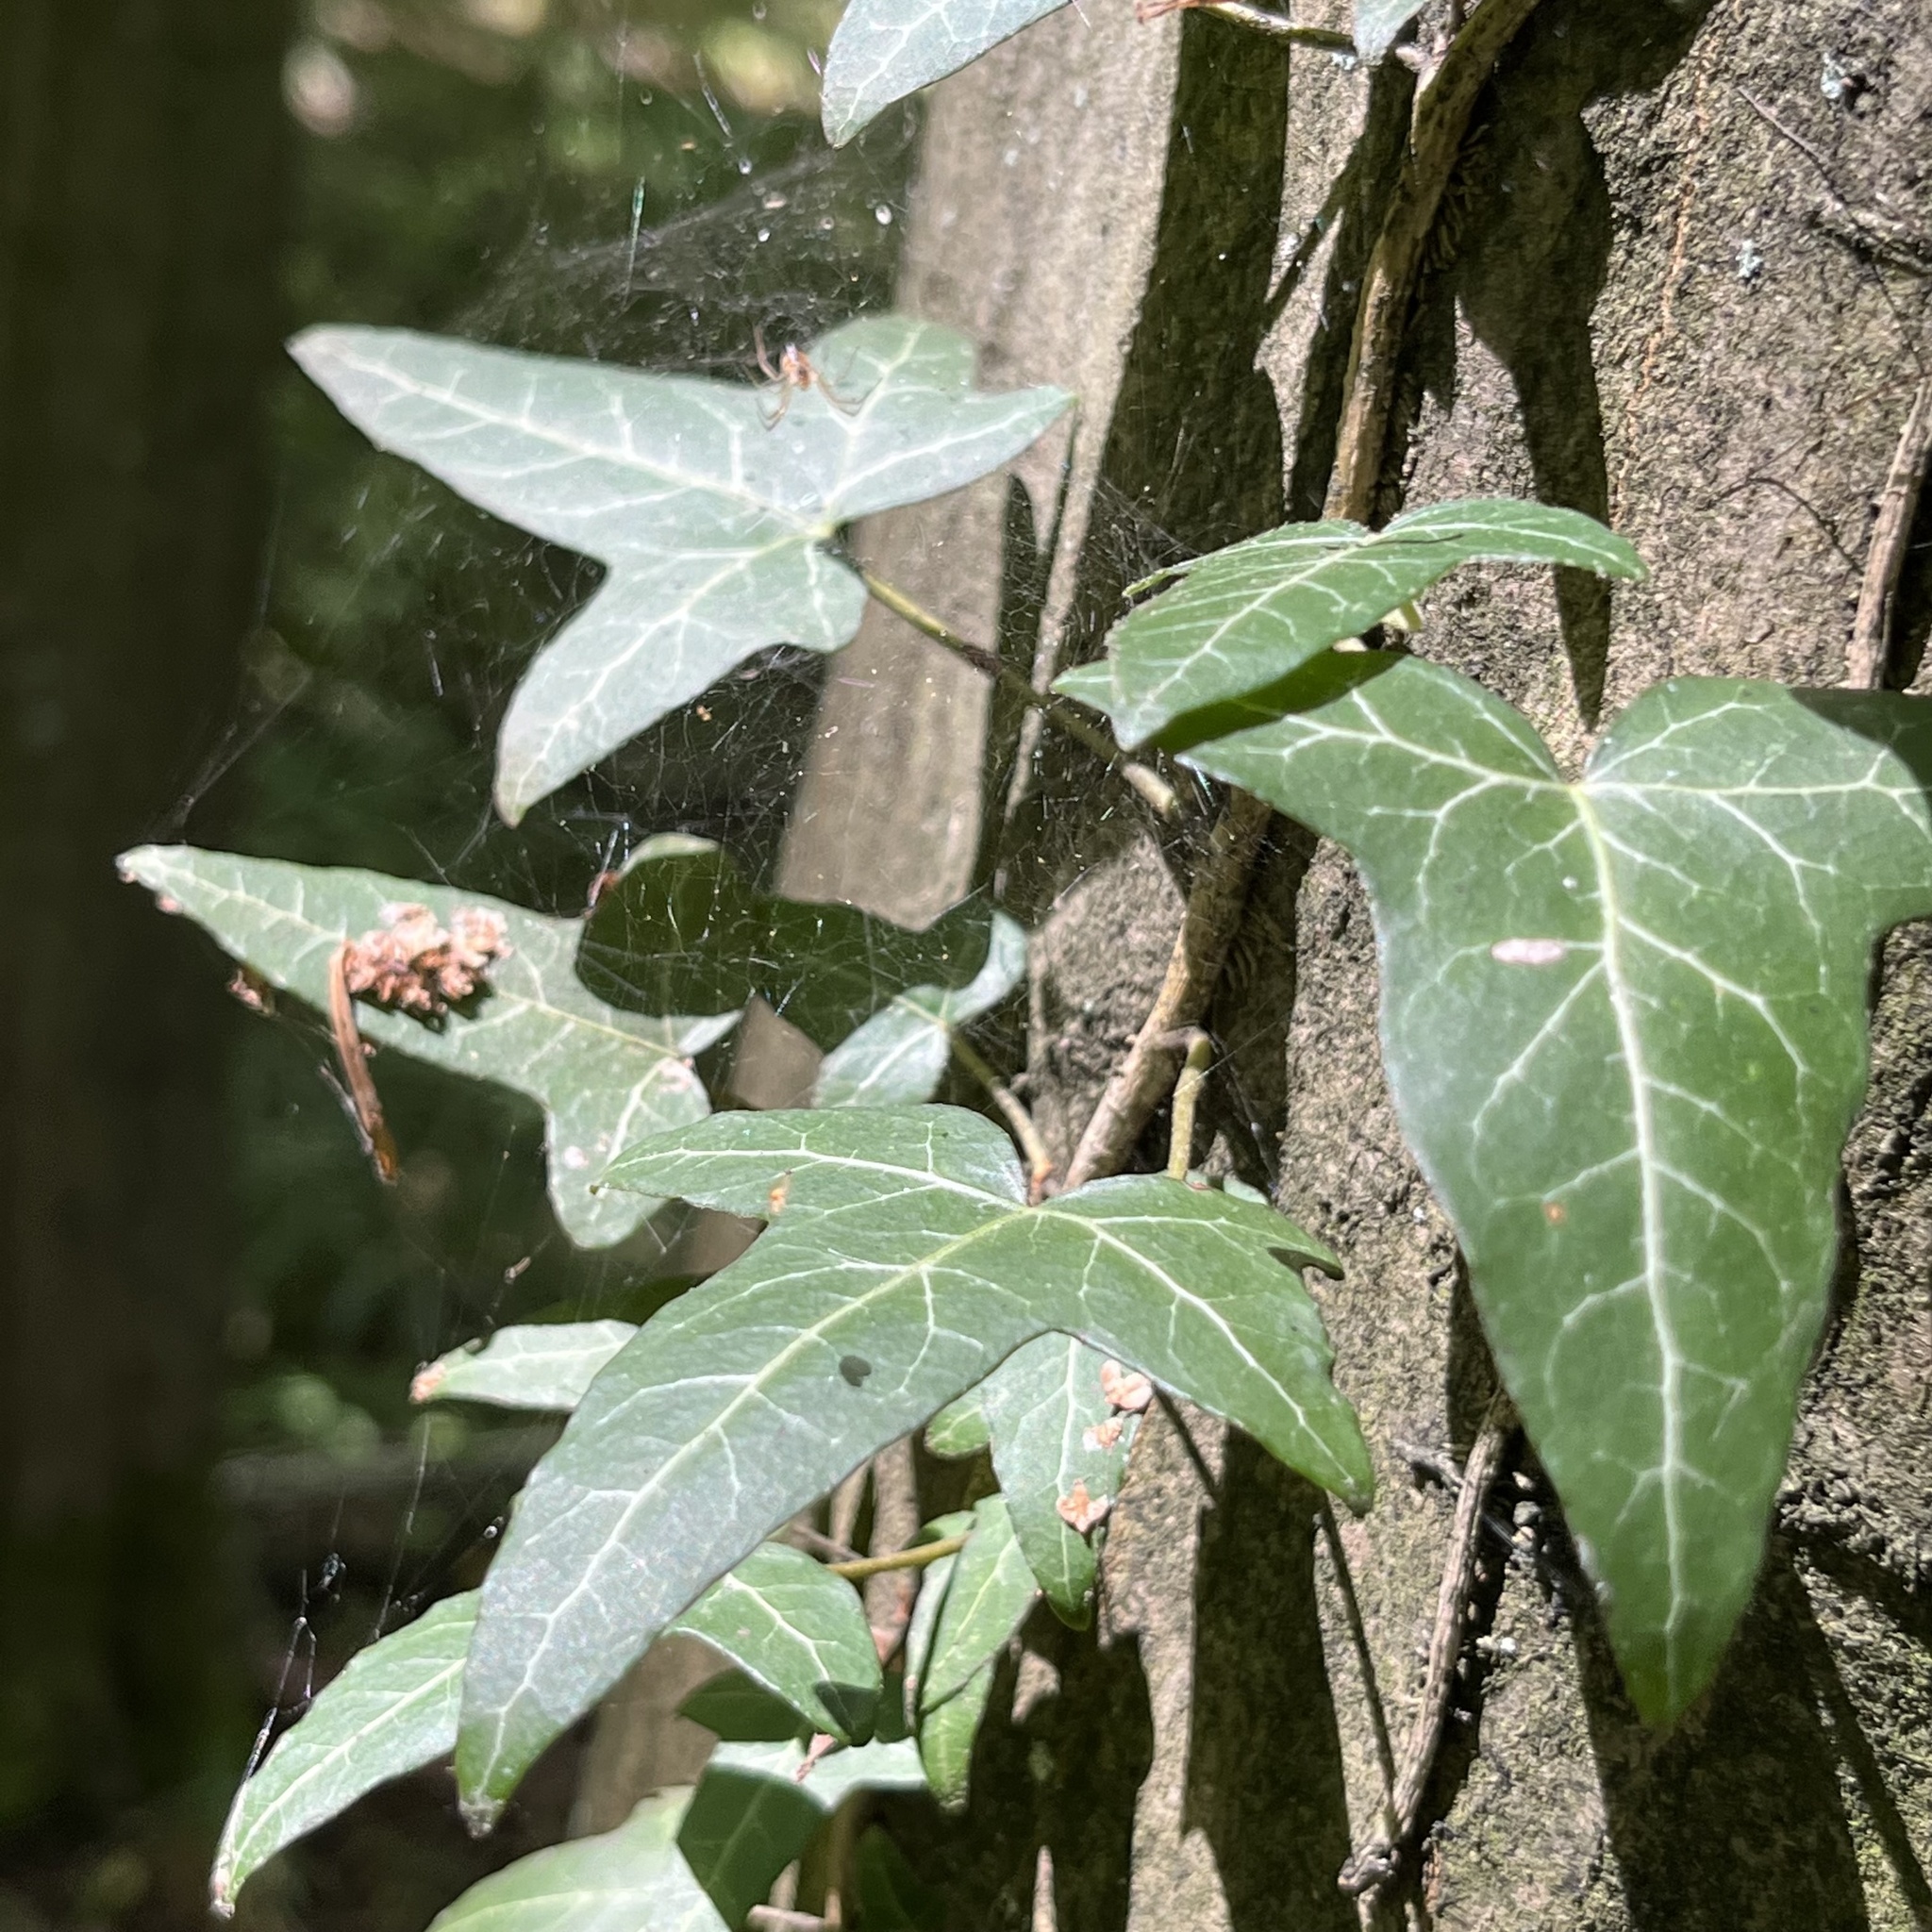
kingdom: Plantae
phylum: Tracheophyta
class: Magnoliopsida
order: Apiales
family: Araliaceae
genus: Hedera
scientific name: Hedera helix
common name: Ivy
